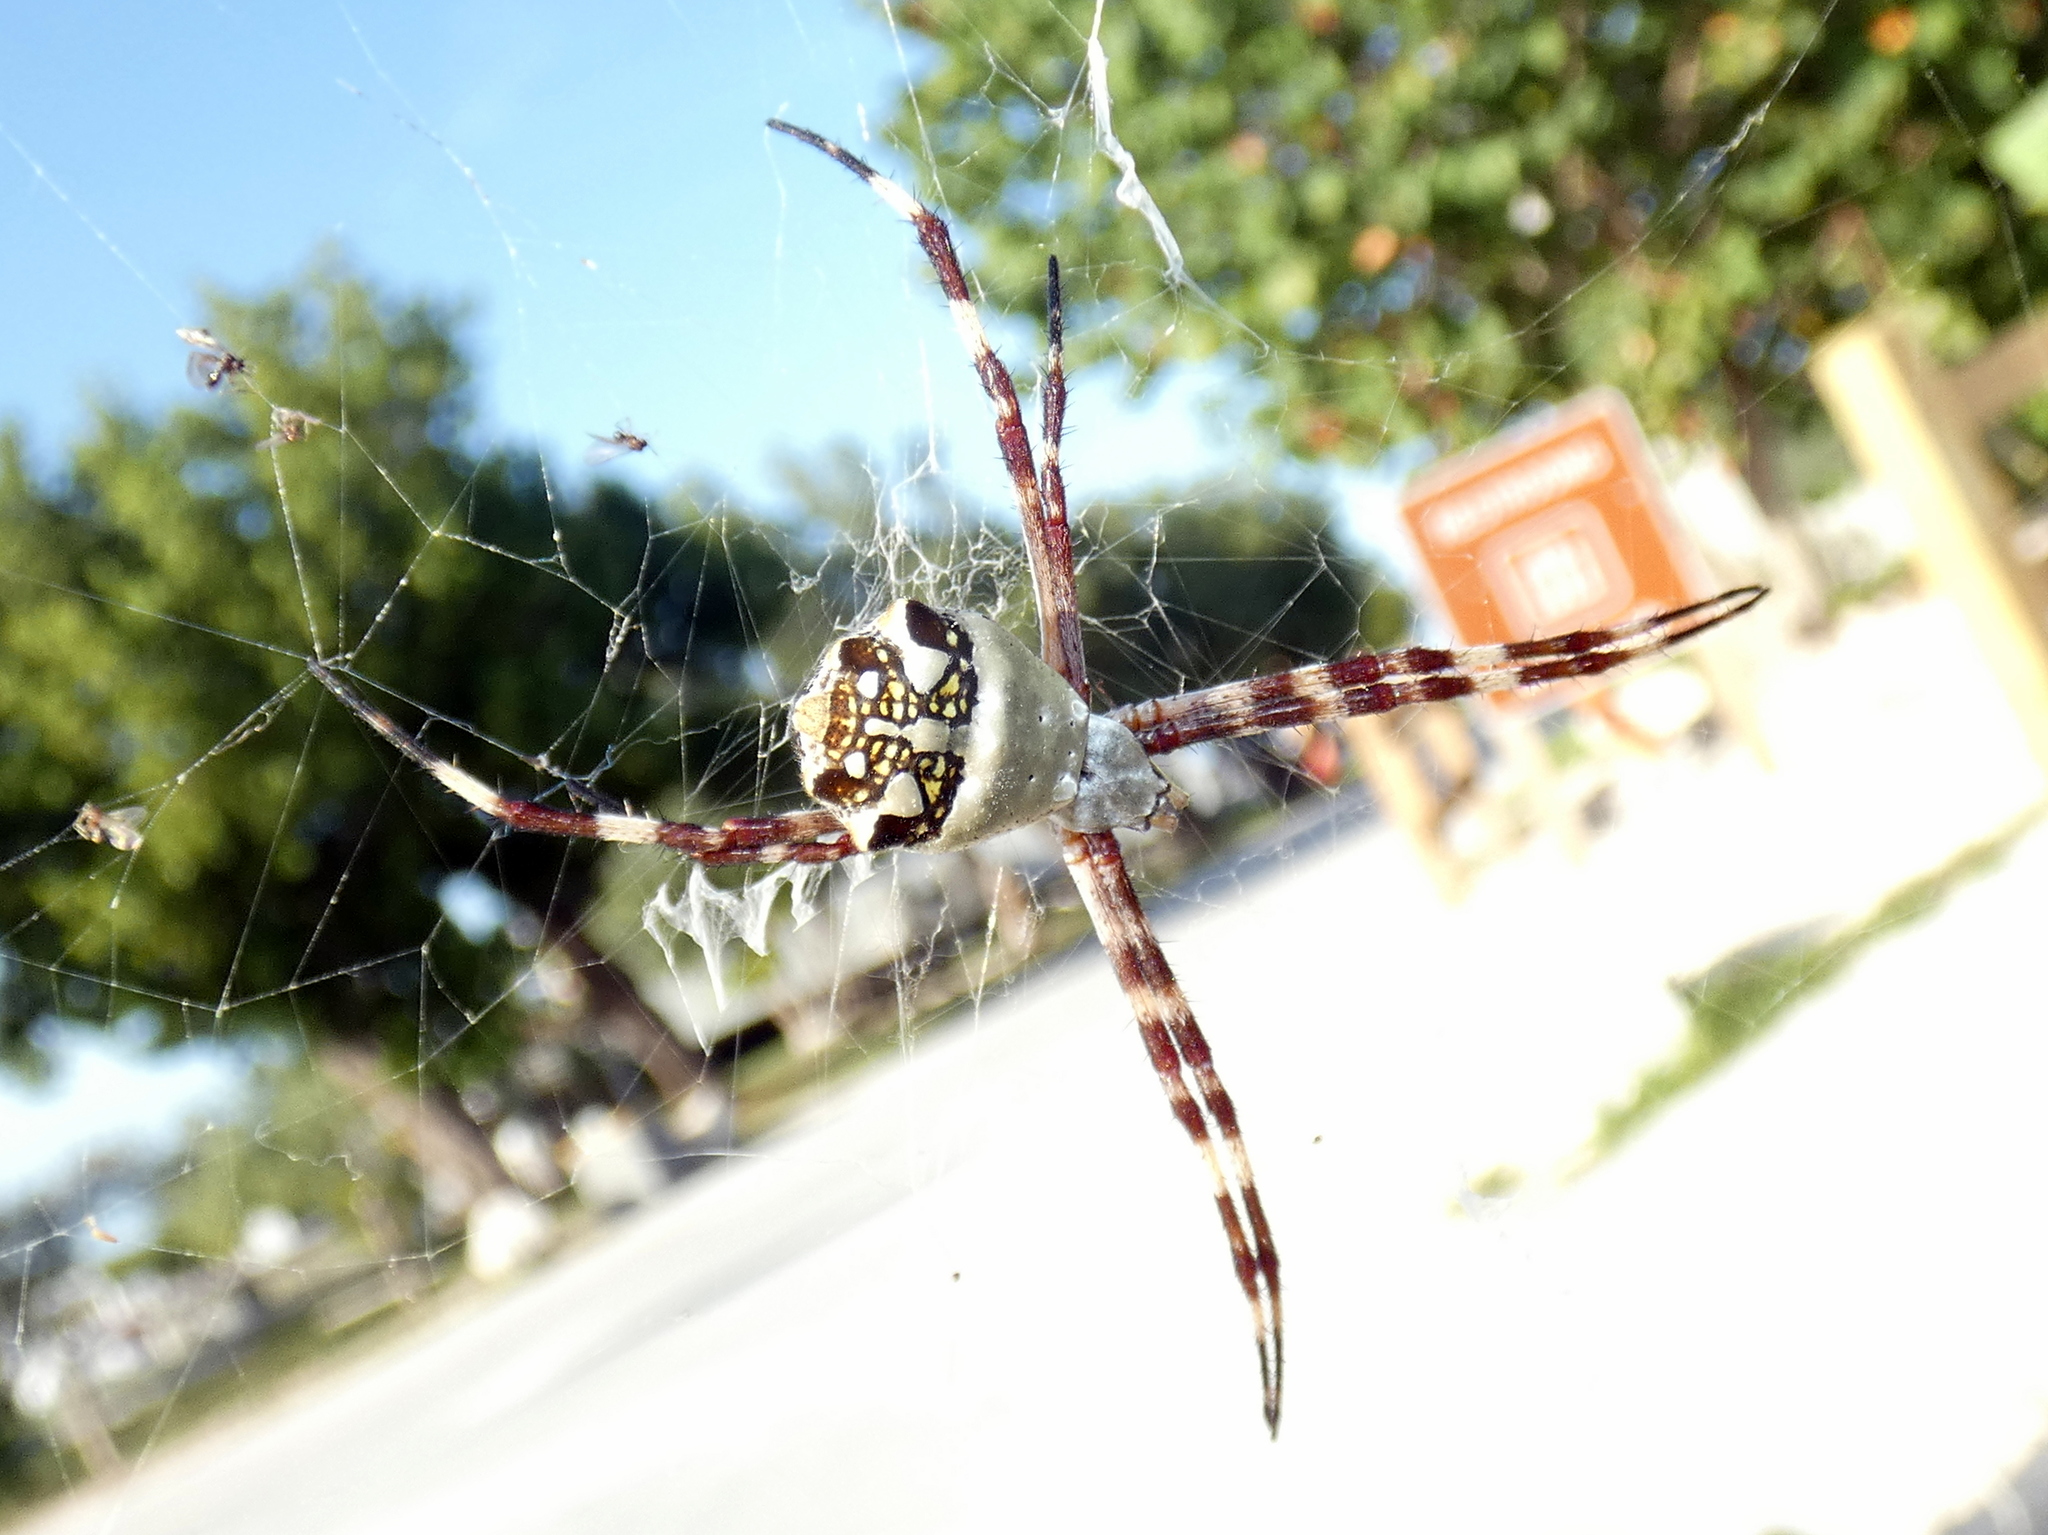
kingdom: Animalia
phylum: Arthropoda
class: Arachnida
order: Araneae
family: Araneidae
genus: Argiope
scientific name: Argiope argentata
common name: Orb weavers
